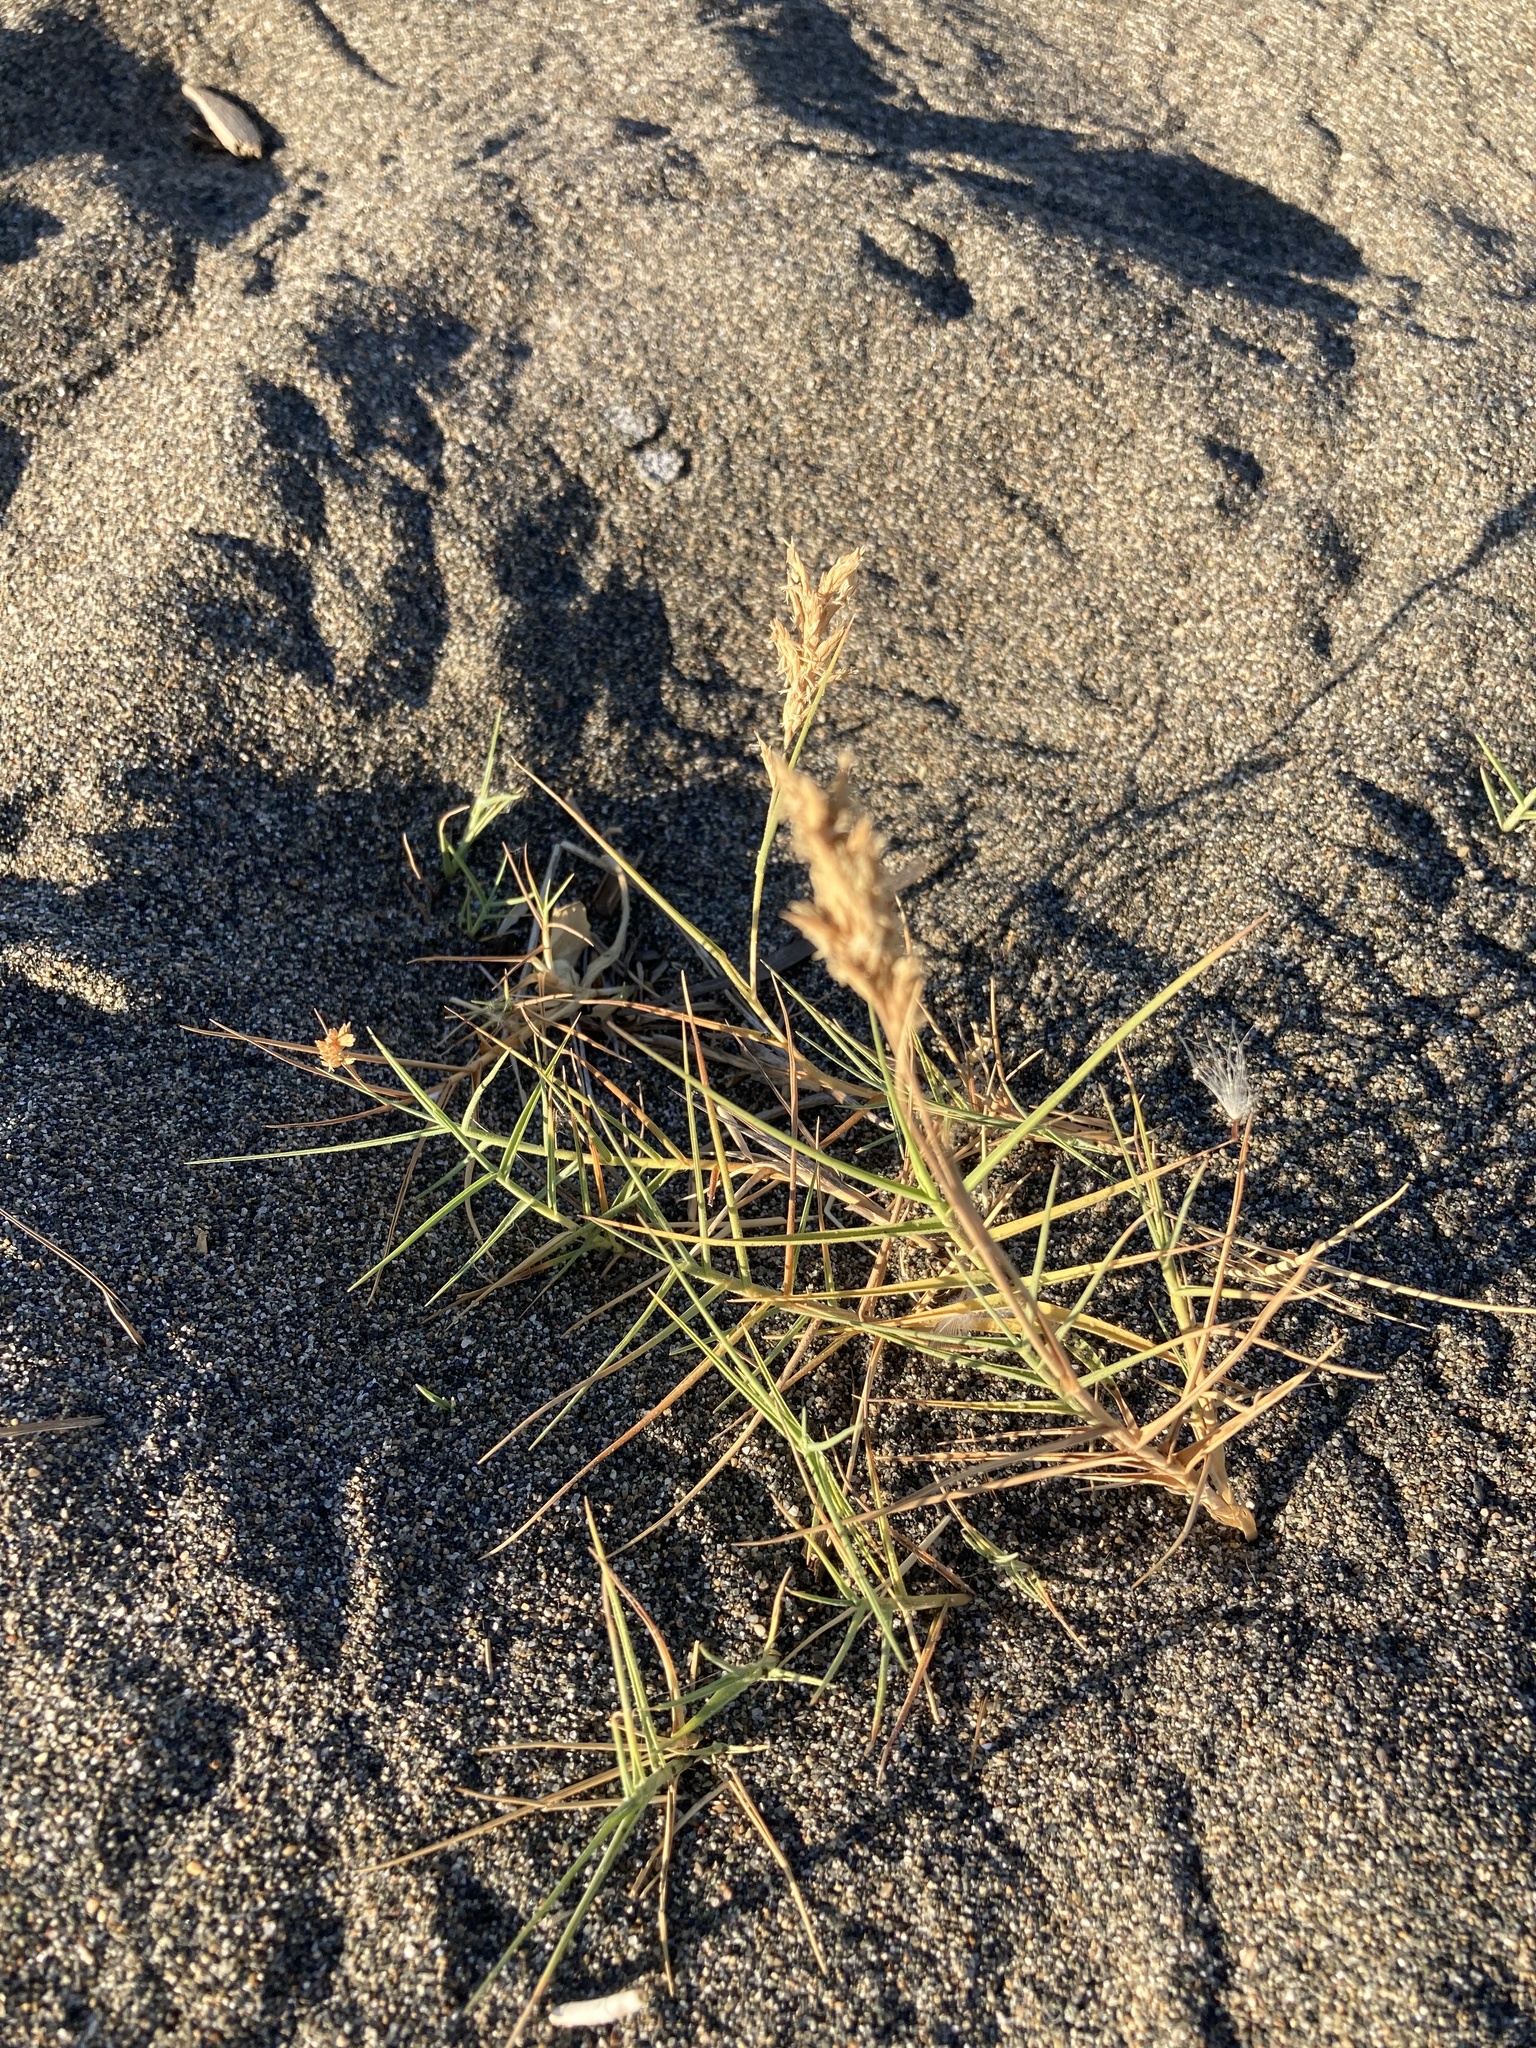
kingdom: Plantae
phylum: Tracheophyta
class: Liliopsida
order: Poales
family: Poaceae
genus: Distichlis
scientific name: Distichlis spicata
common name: Saltgrass
